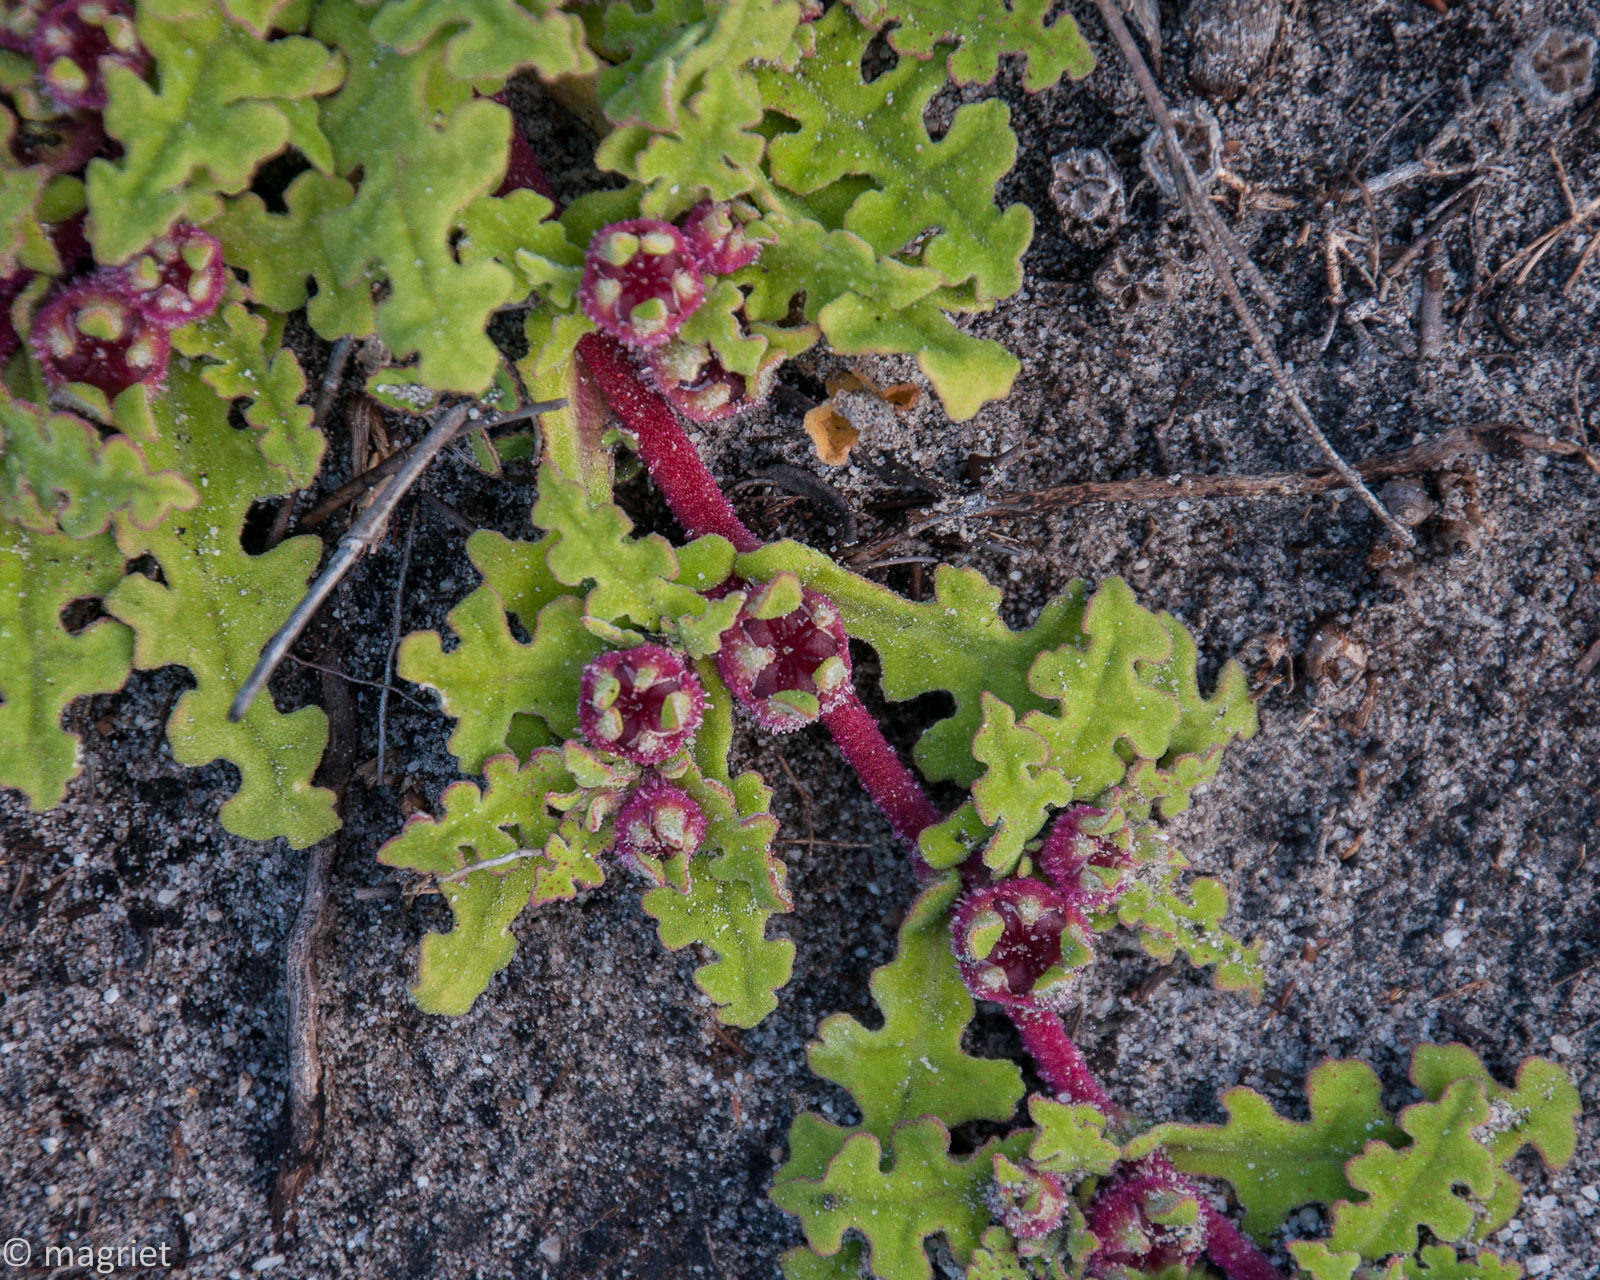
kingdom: Plantae
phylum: Tracheophyta
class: Magnoliopsida
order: Caryophyllales
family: Aizoaceae
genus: Cleretum
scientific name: Cleretum herrei
